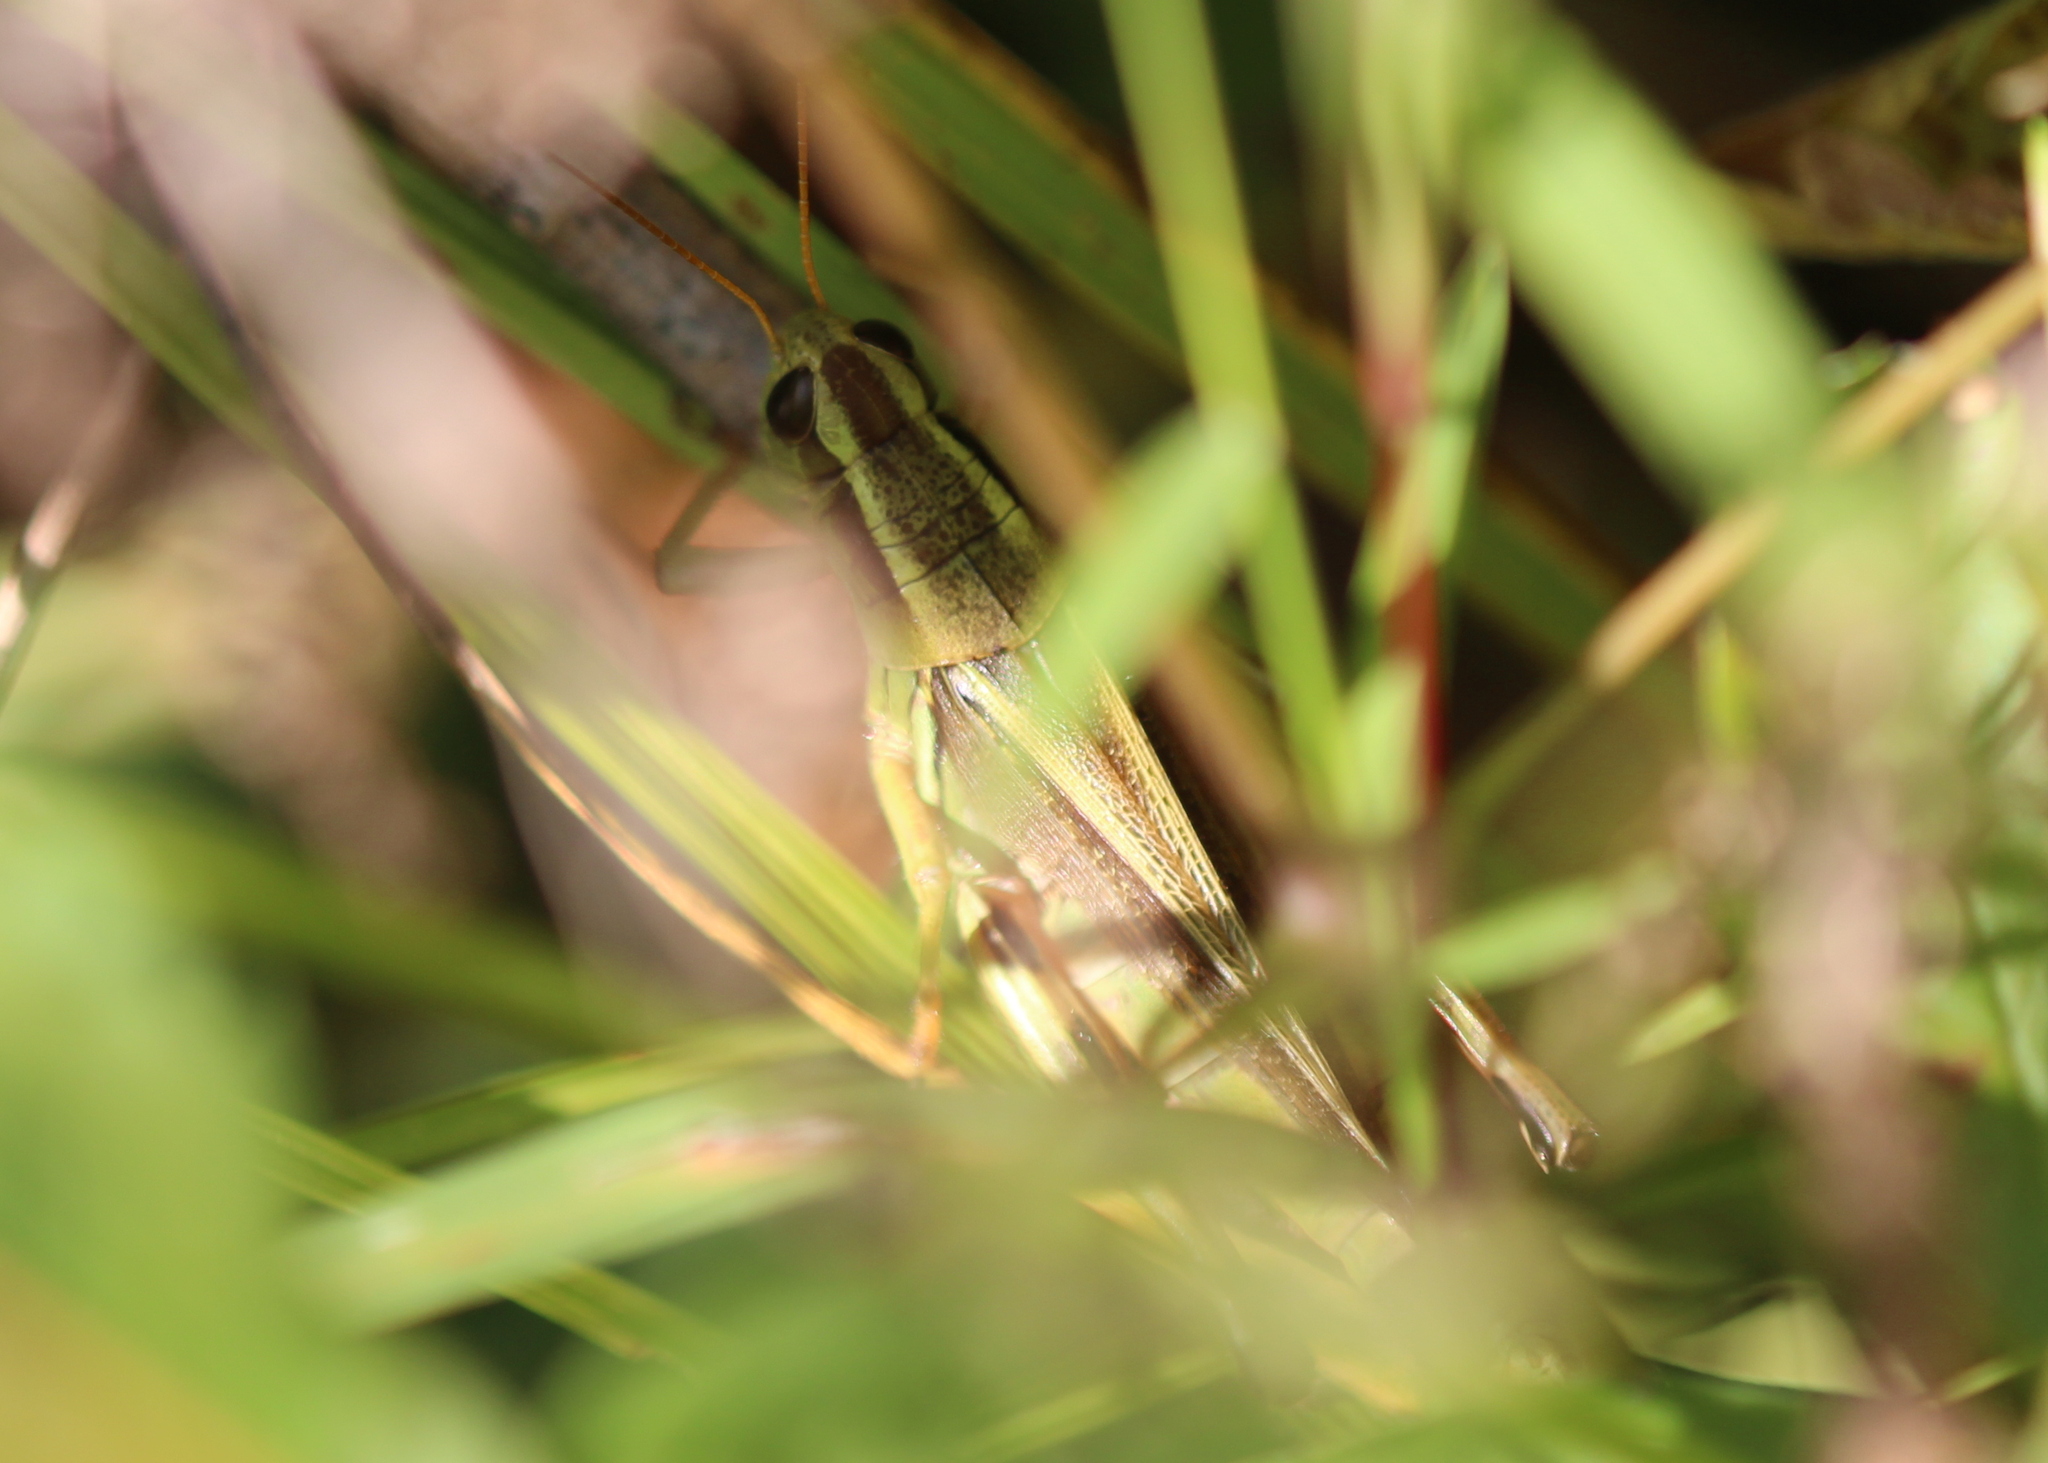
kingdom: Animalia
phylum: Arthropoda
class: Insecta
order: Orthoptera
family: Acrididae
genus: Melanoplus
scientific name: Melanoplus bivittatus
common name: Two-striped grasshopper
